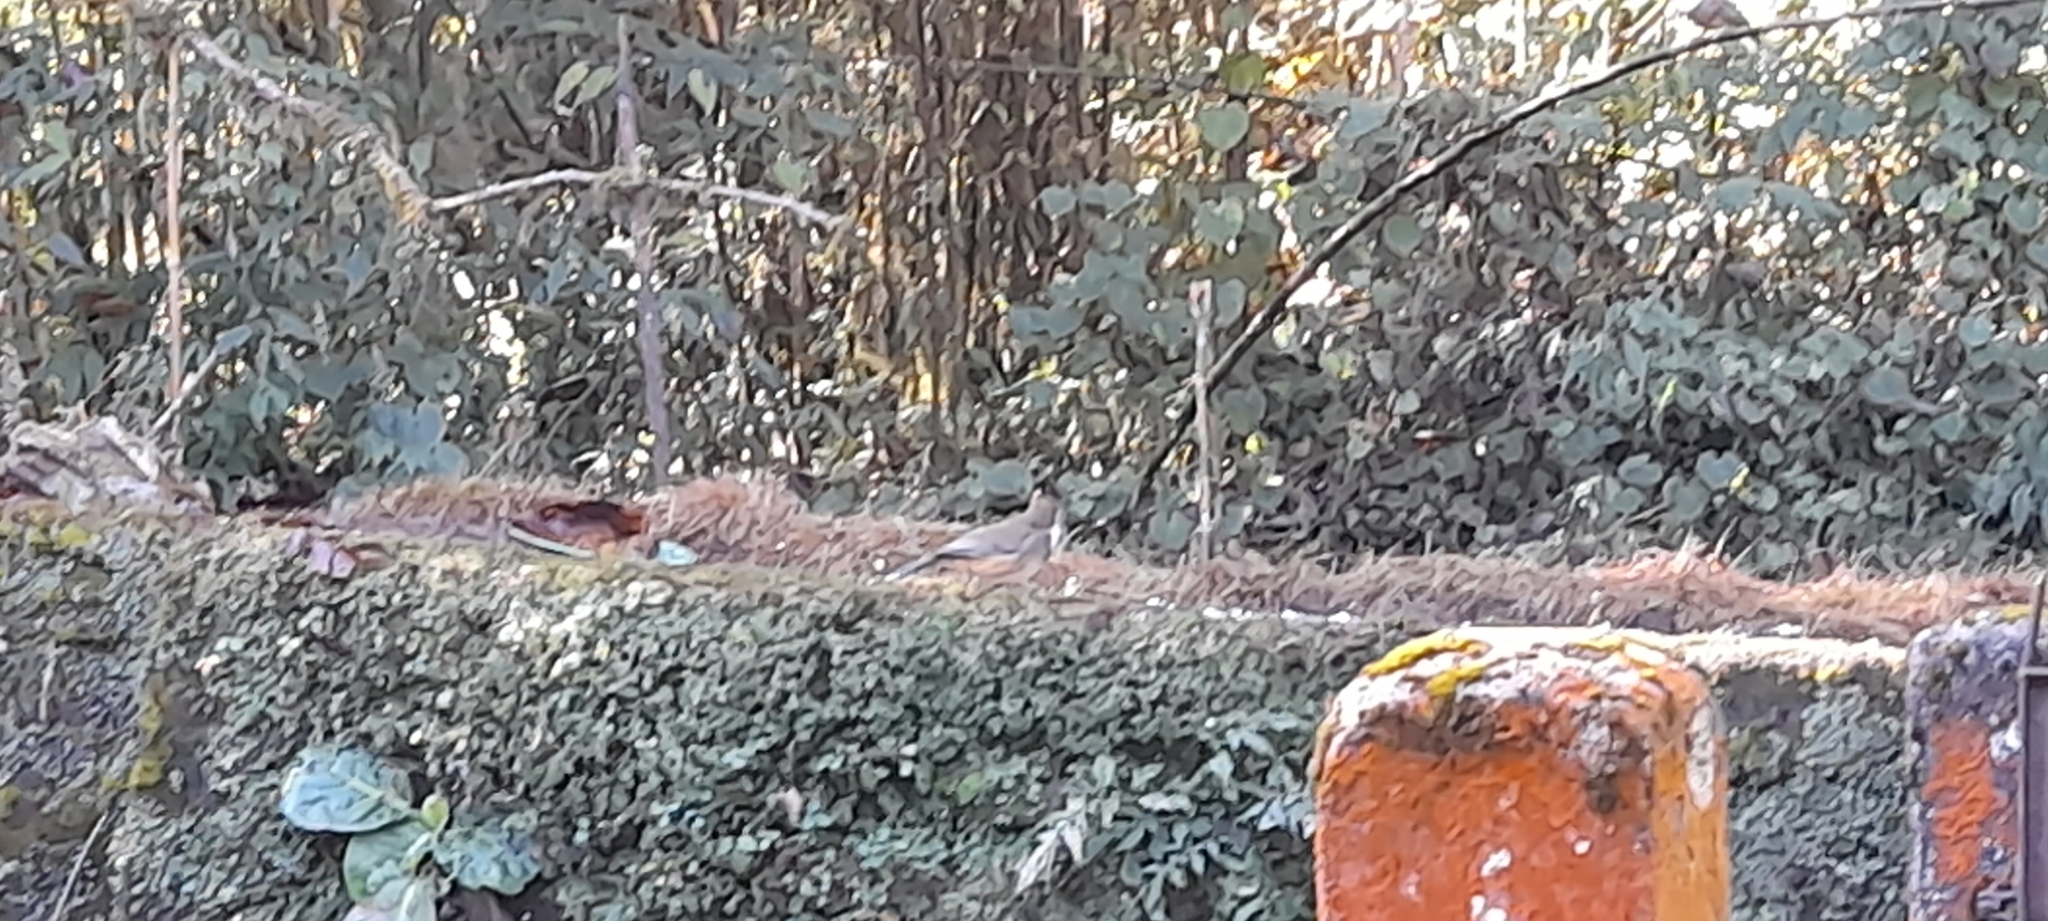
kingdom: Animalia
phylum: Chordata
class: Aves
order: Passeriformes
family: Leiothrichidae
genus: Garrulax
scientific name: Garrulax albogularis
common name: White-throated laughingthrush
